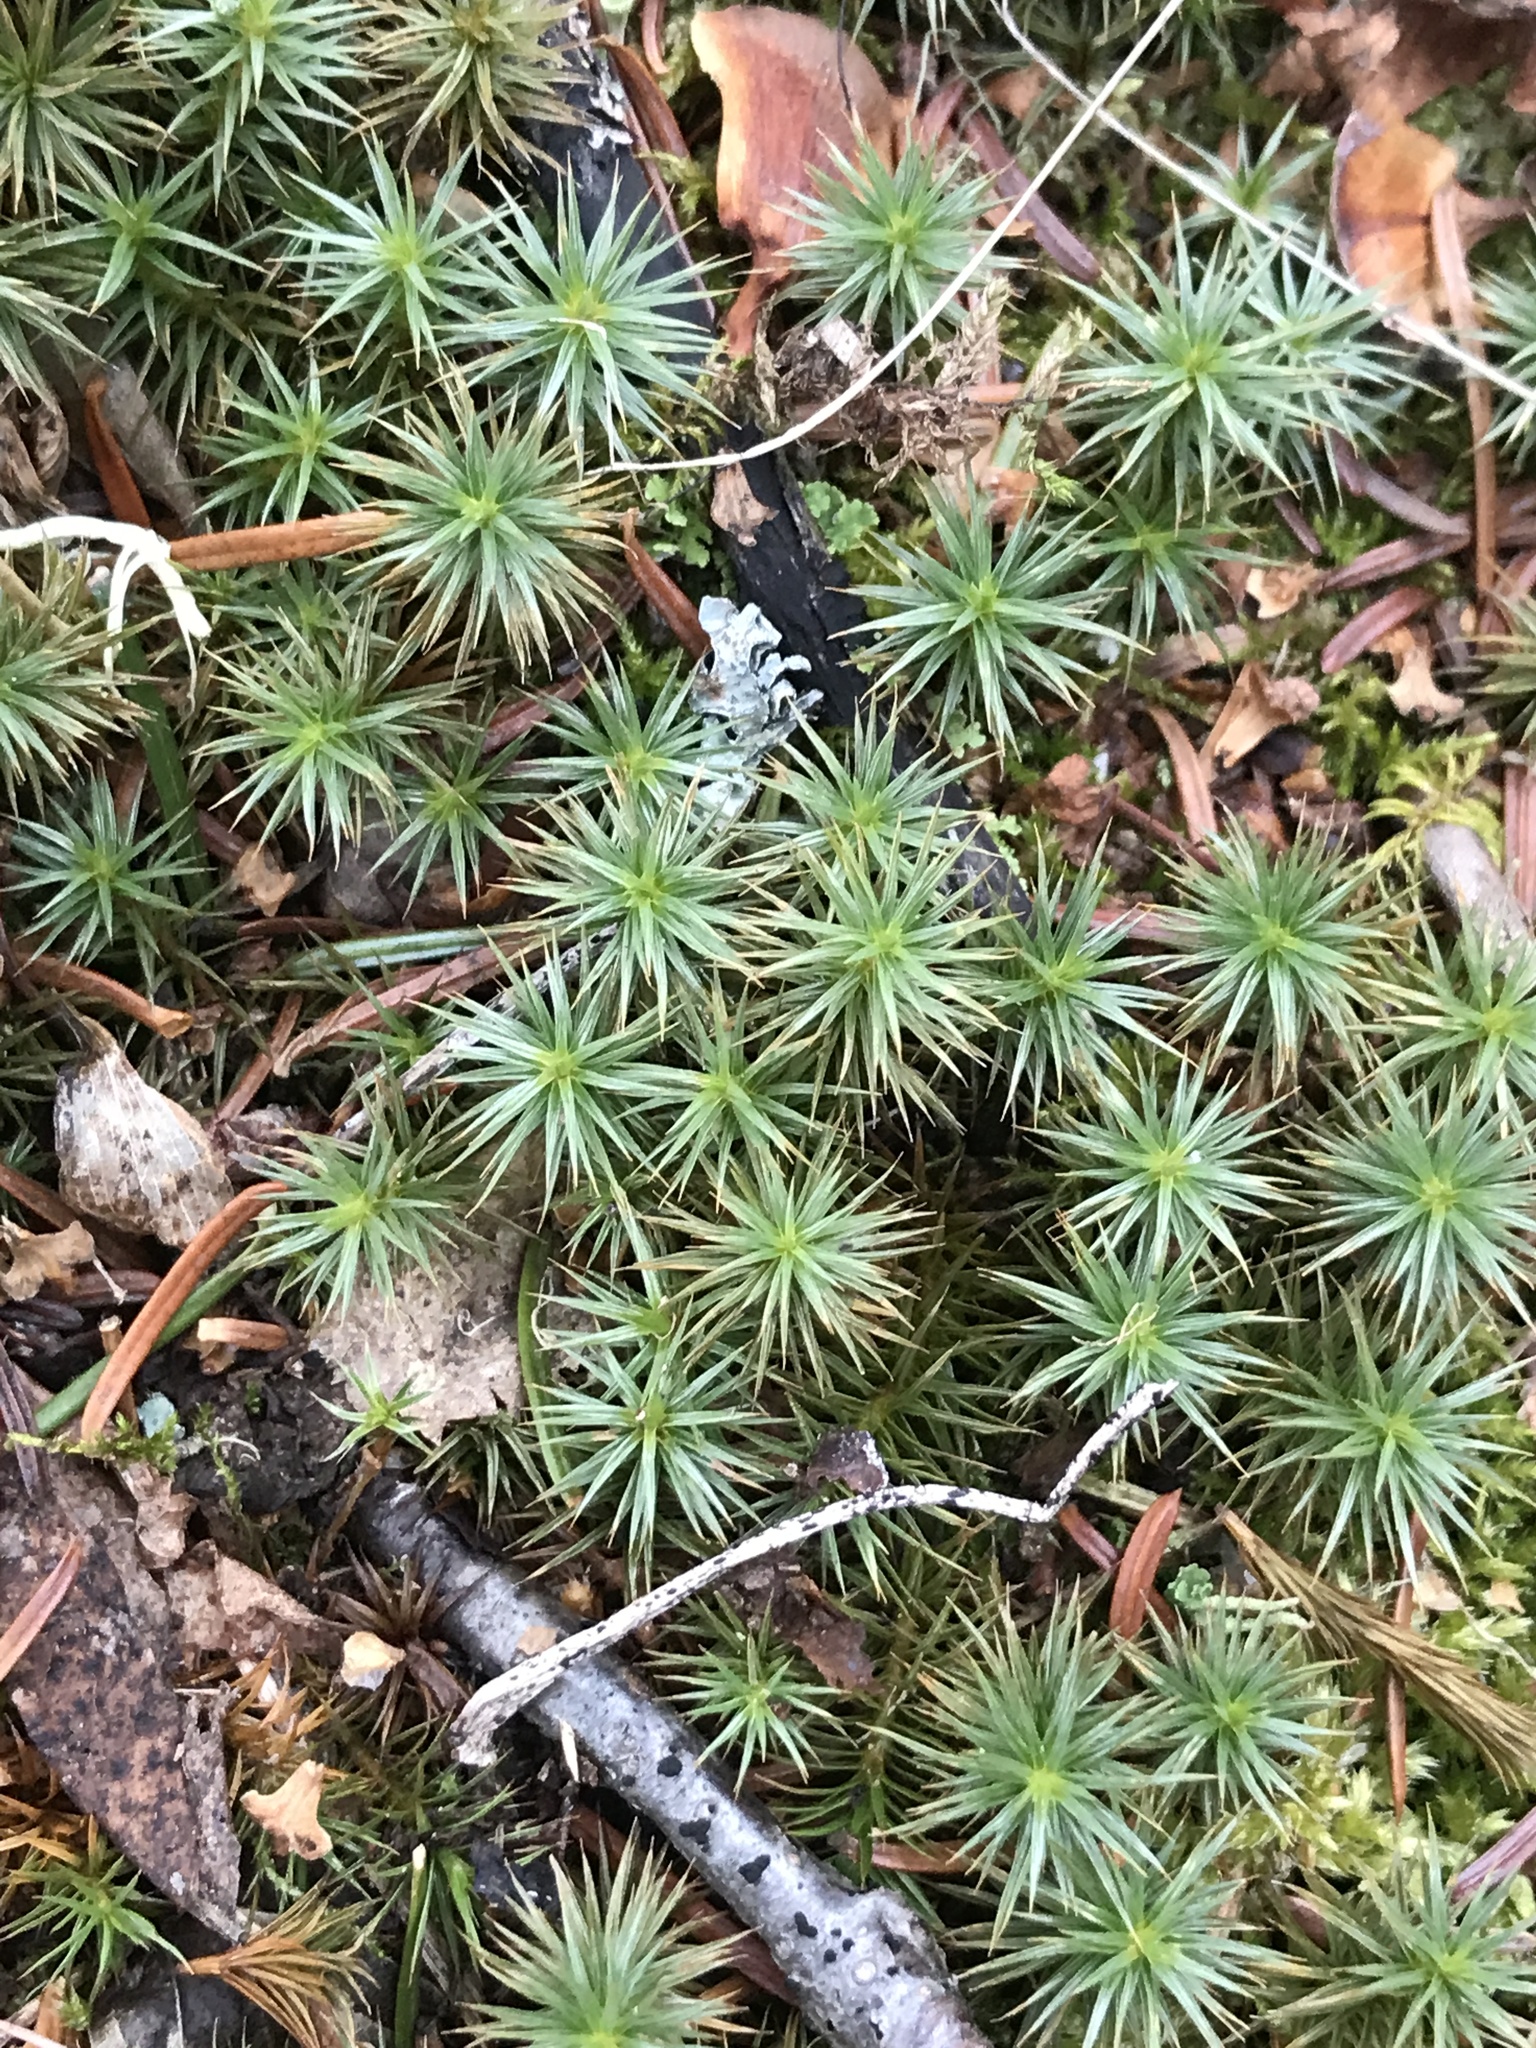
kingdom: Plantae
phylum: Bryophyta
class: Polytrichopsida
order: Polytrichales
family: Polytrichaceae
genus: Polytrichum
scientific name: Polytrichum juniperinum
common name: Juniper haircap moss
